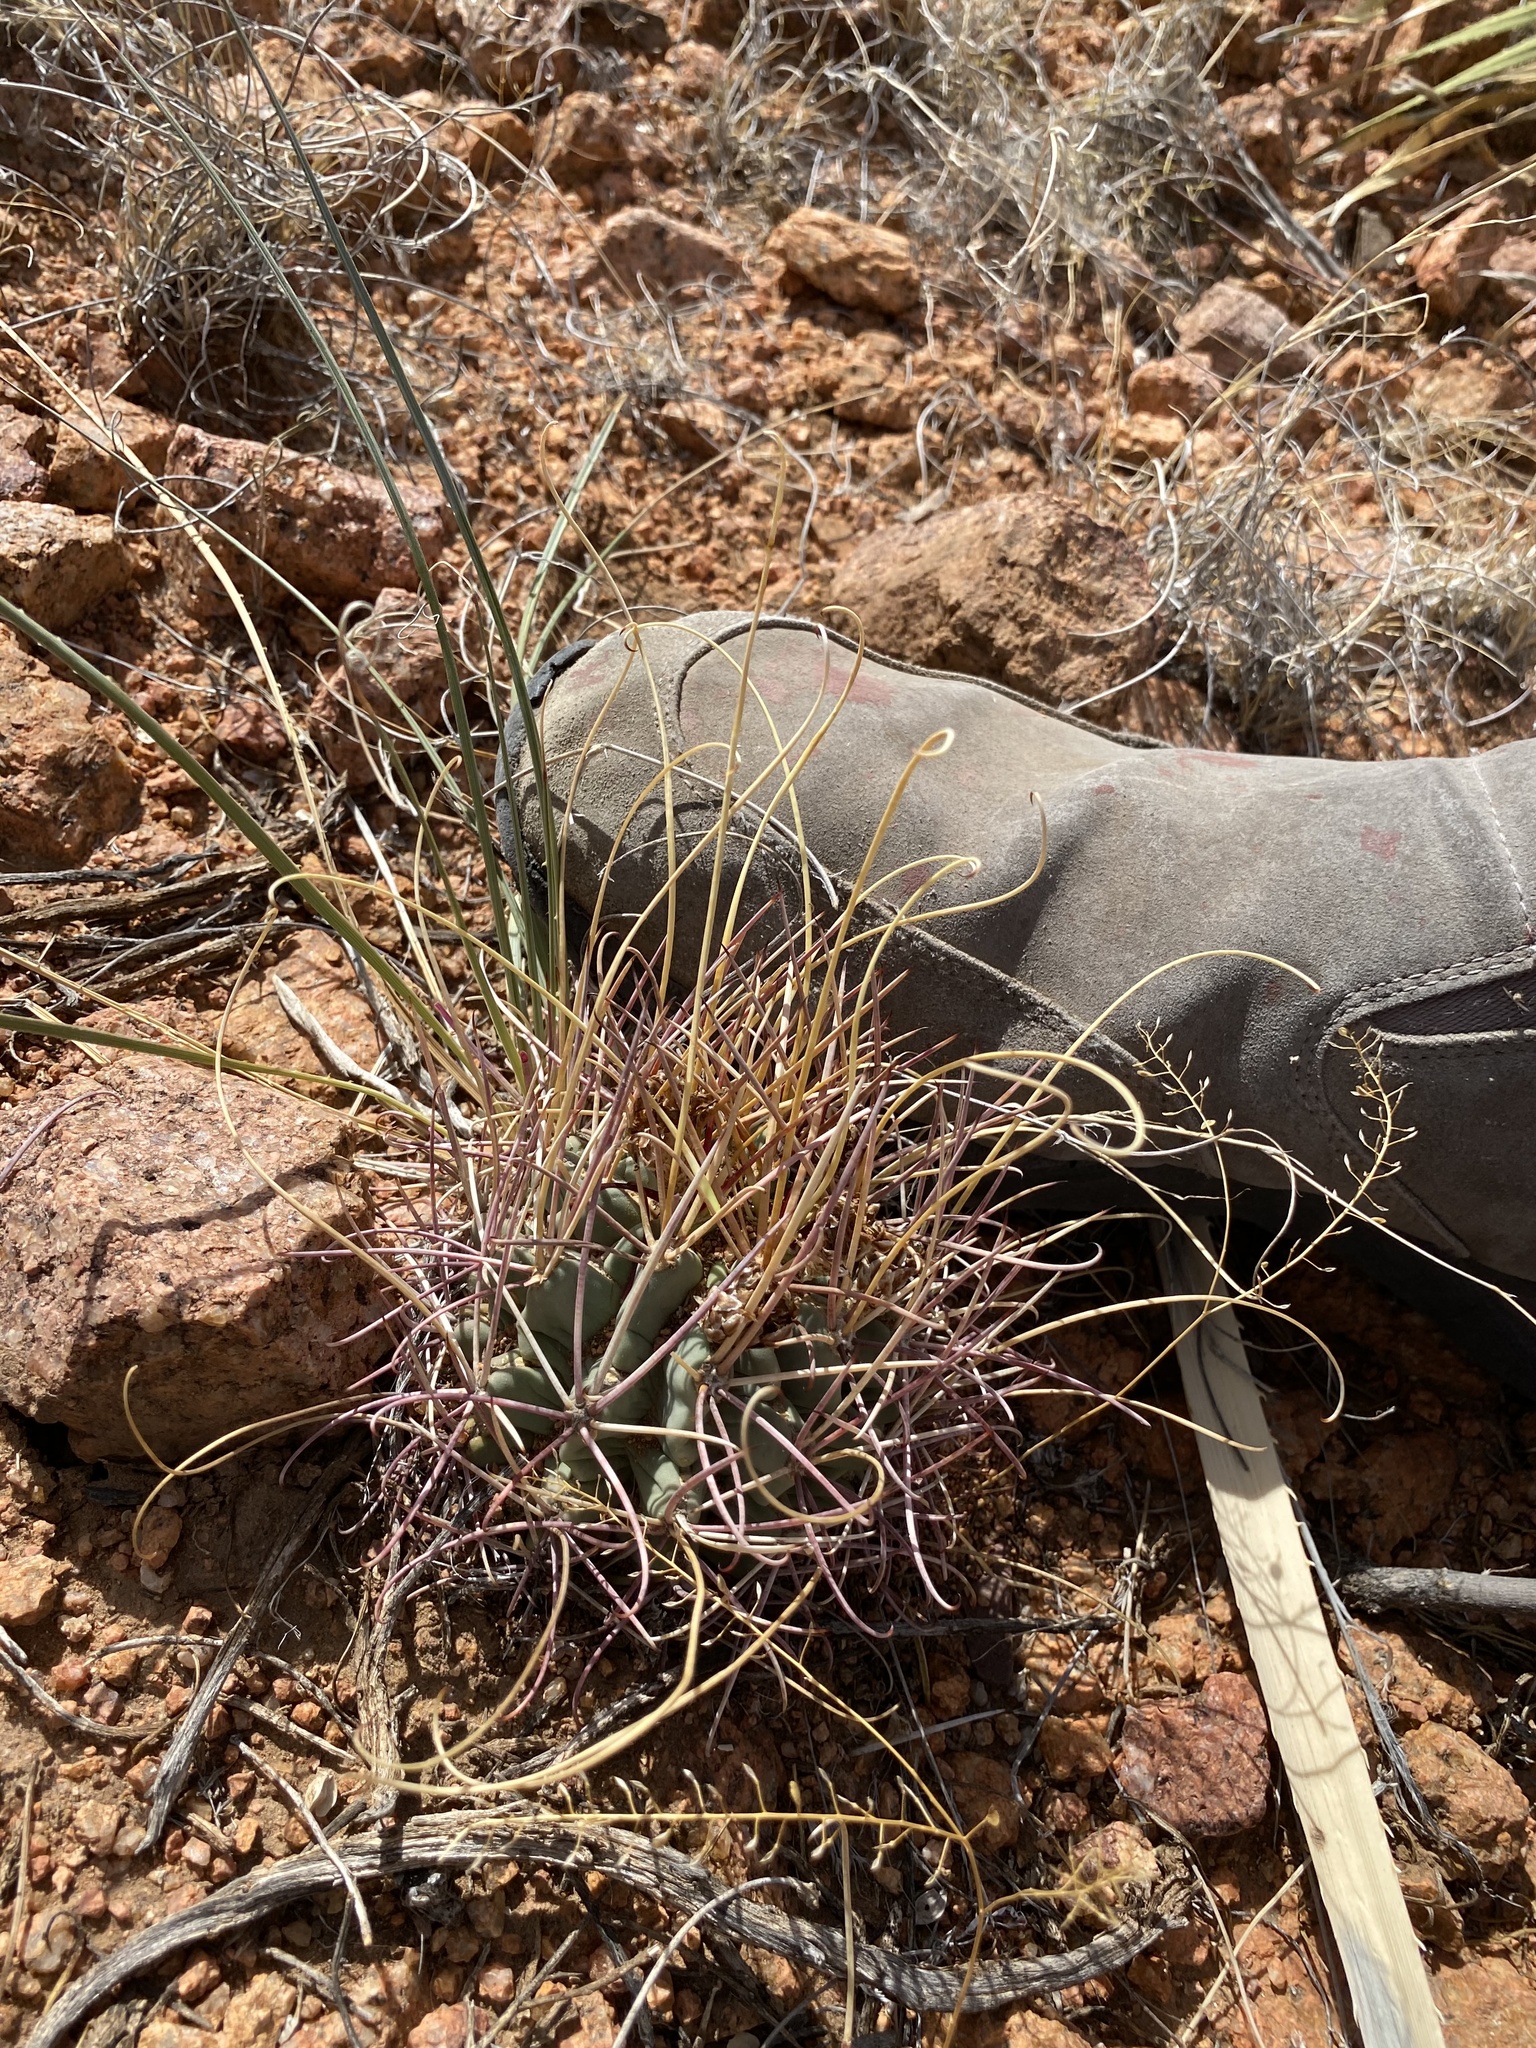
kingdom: Plantae
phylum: Tracheophyta
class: Magnoliopsida
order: Caryophyllales
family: Cactaceae
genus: Ferocactus
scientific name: Ferocactus uncinatus
